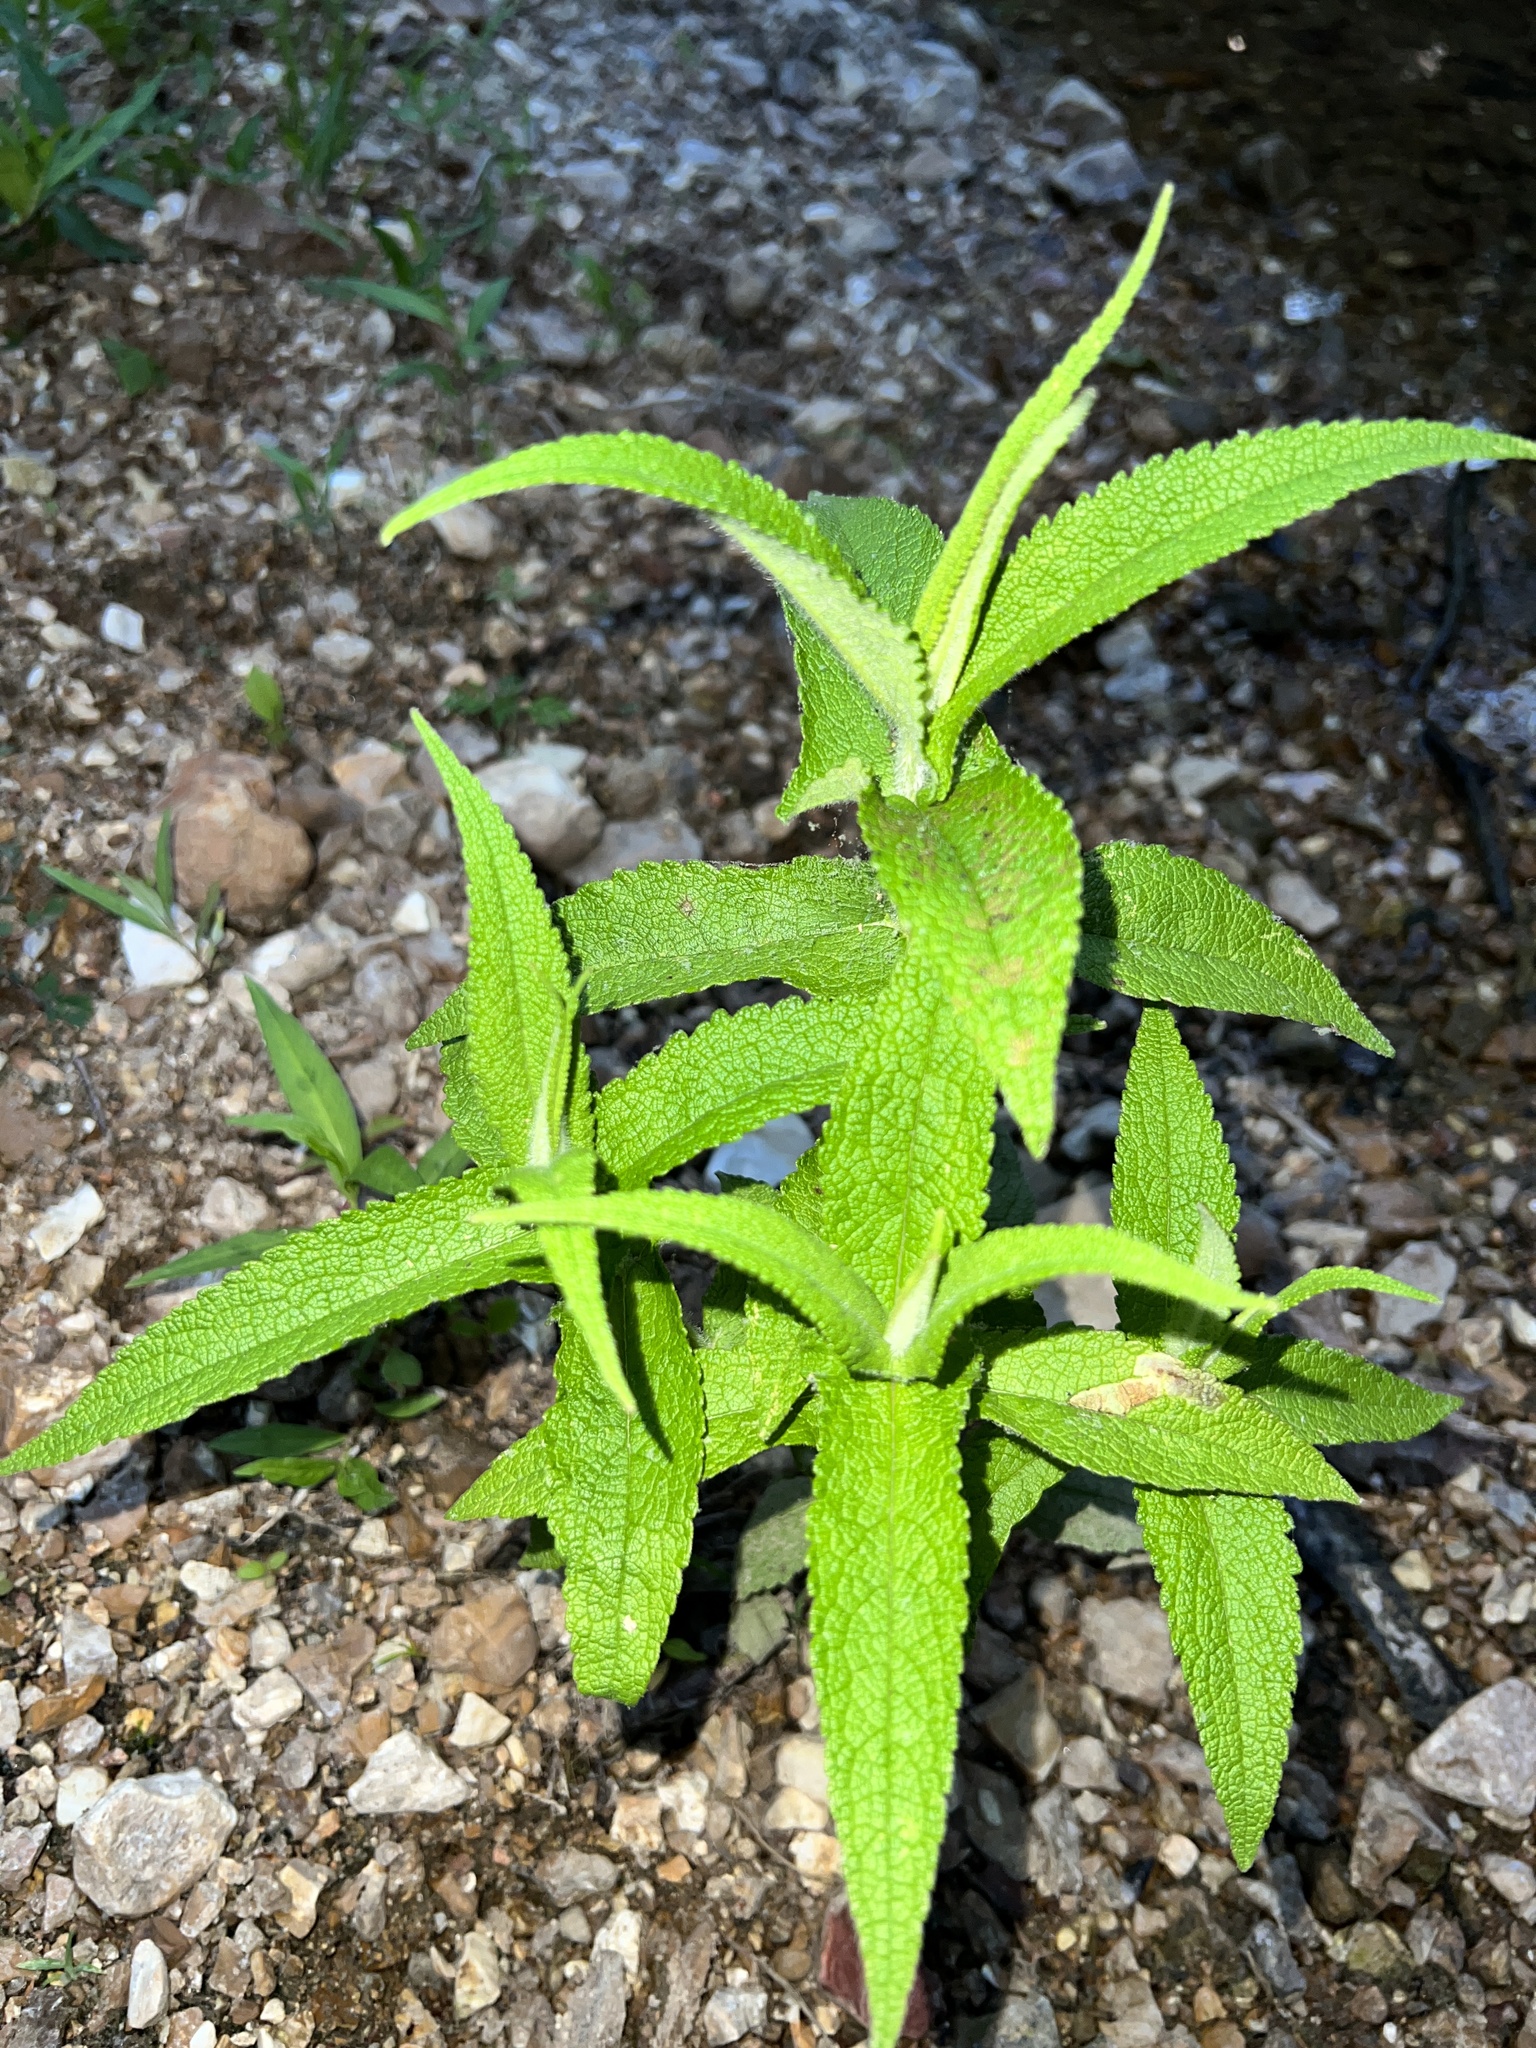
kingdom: Plantae
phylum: Tracheophyta
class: Magnoliopsida
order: Asterales
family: Asteraceae
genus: Eupatorium
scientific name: Eupatorium perfoliatum
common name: Boneset
